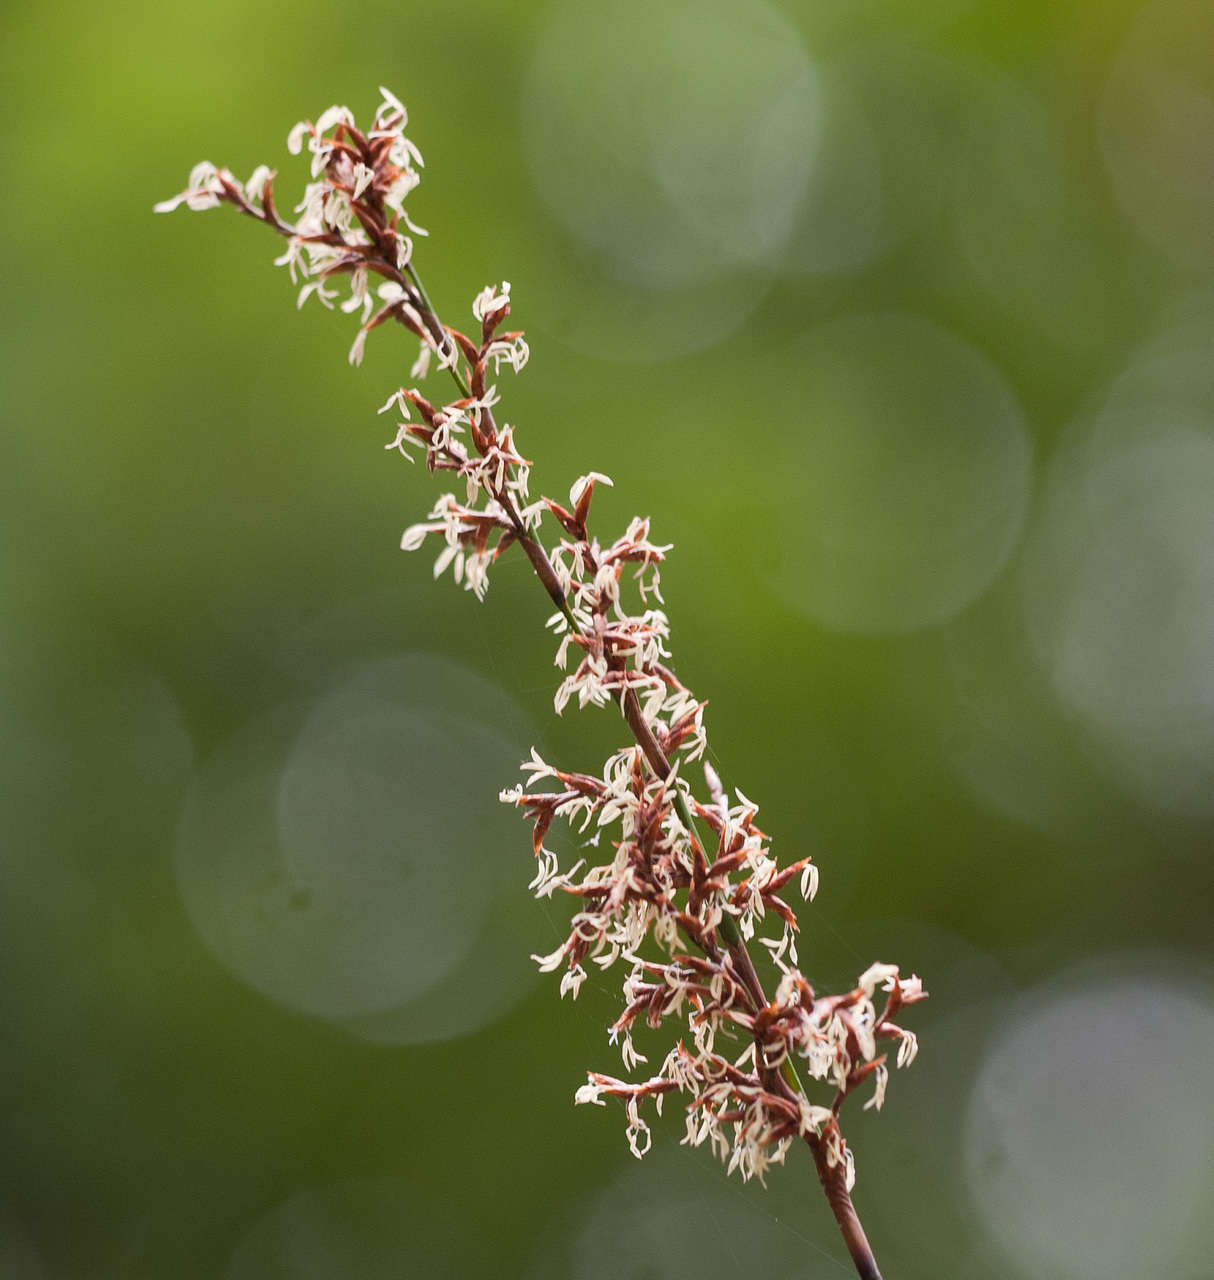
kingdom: Plantae
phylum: Tracheophyta
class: Liliopsida
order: Poales
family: Cyperaceae
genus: Lepidosperma
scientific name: Lepidosperma elatius
